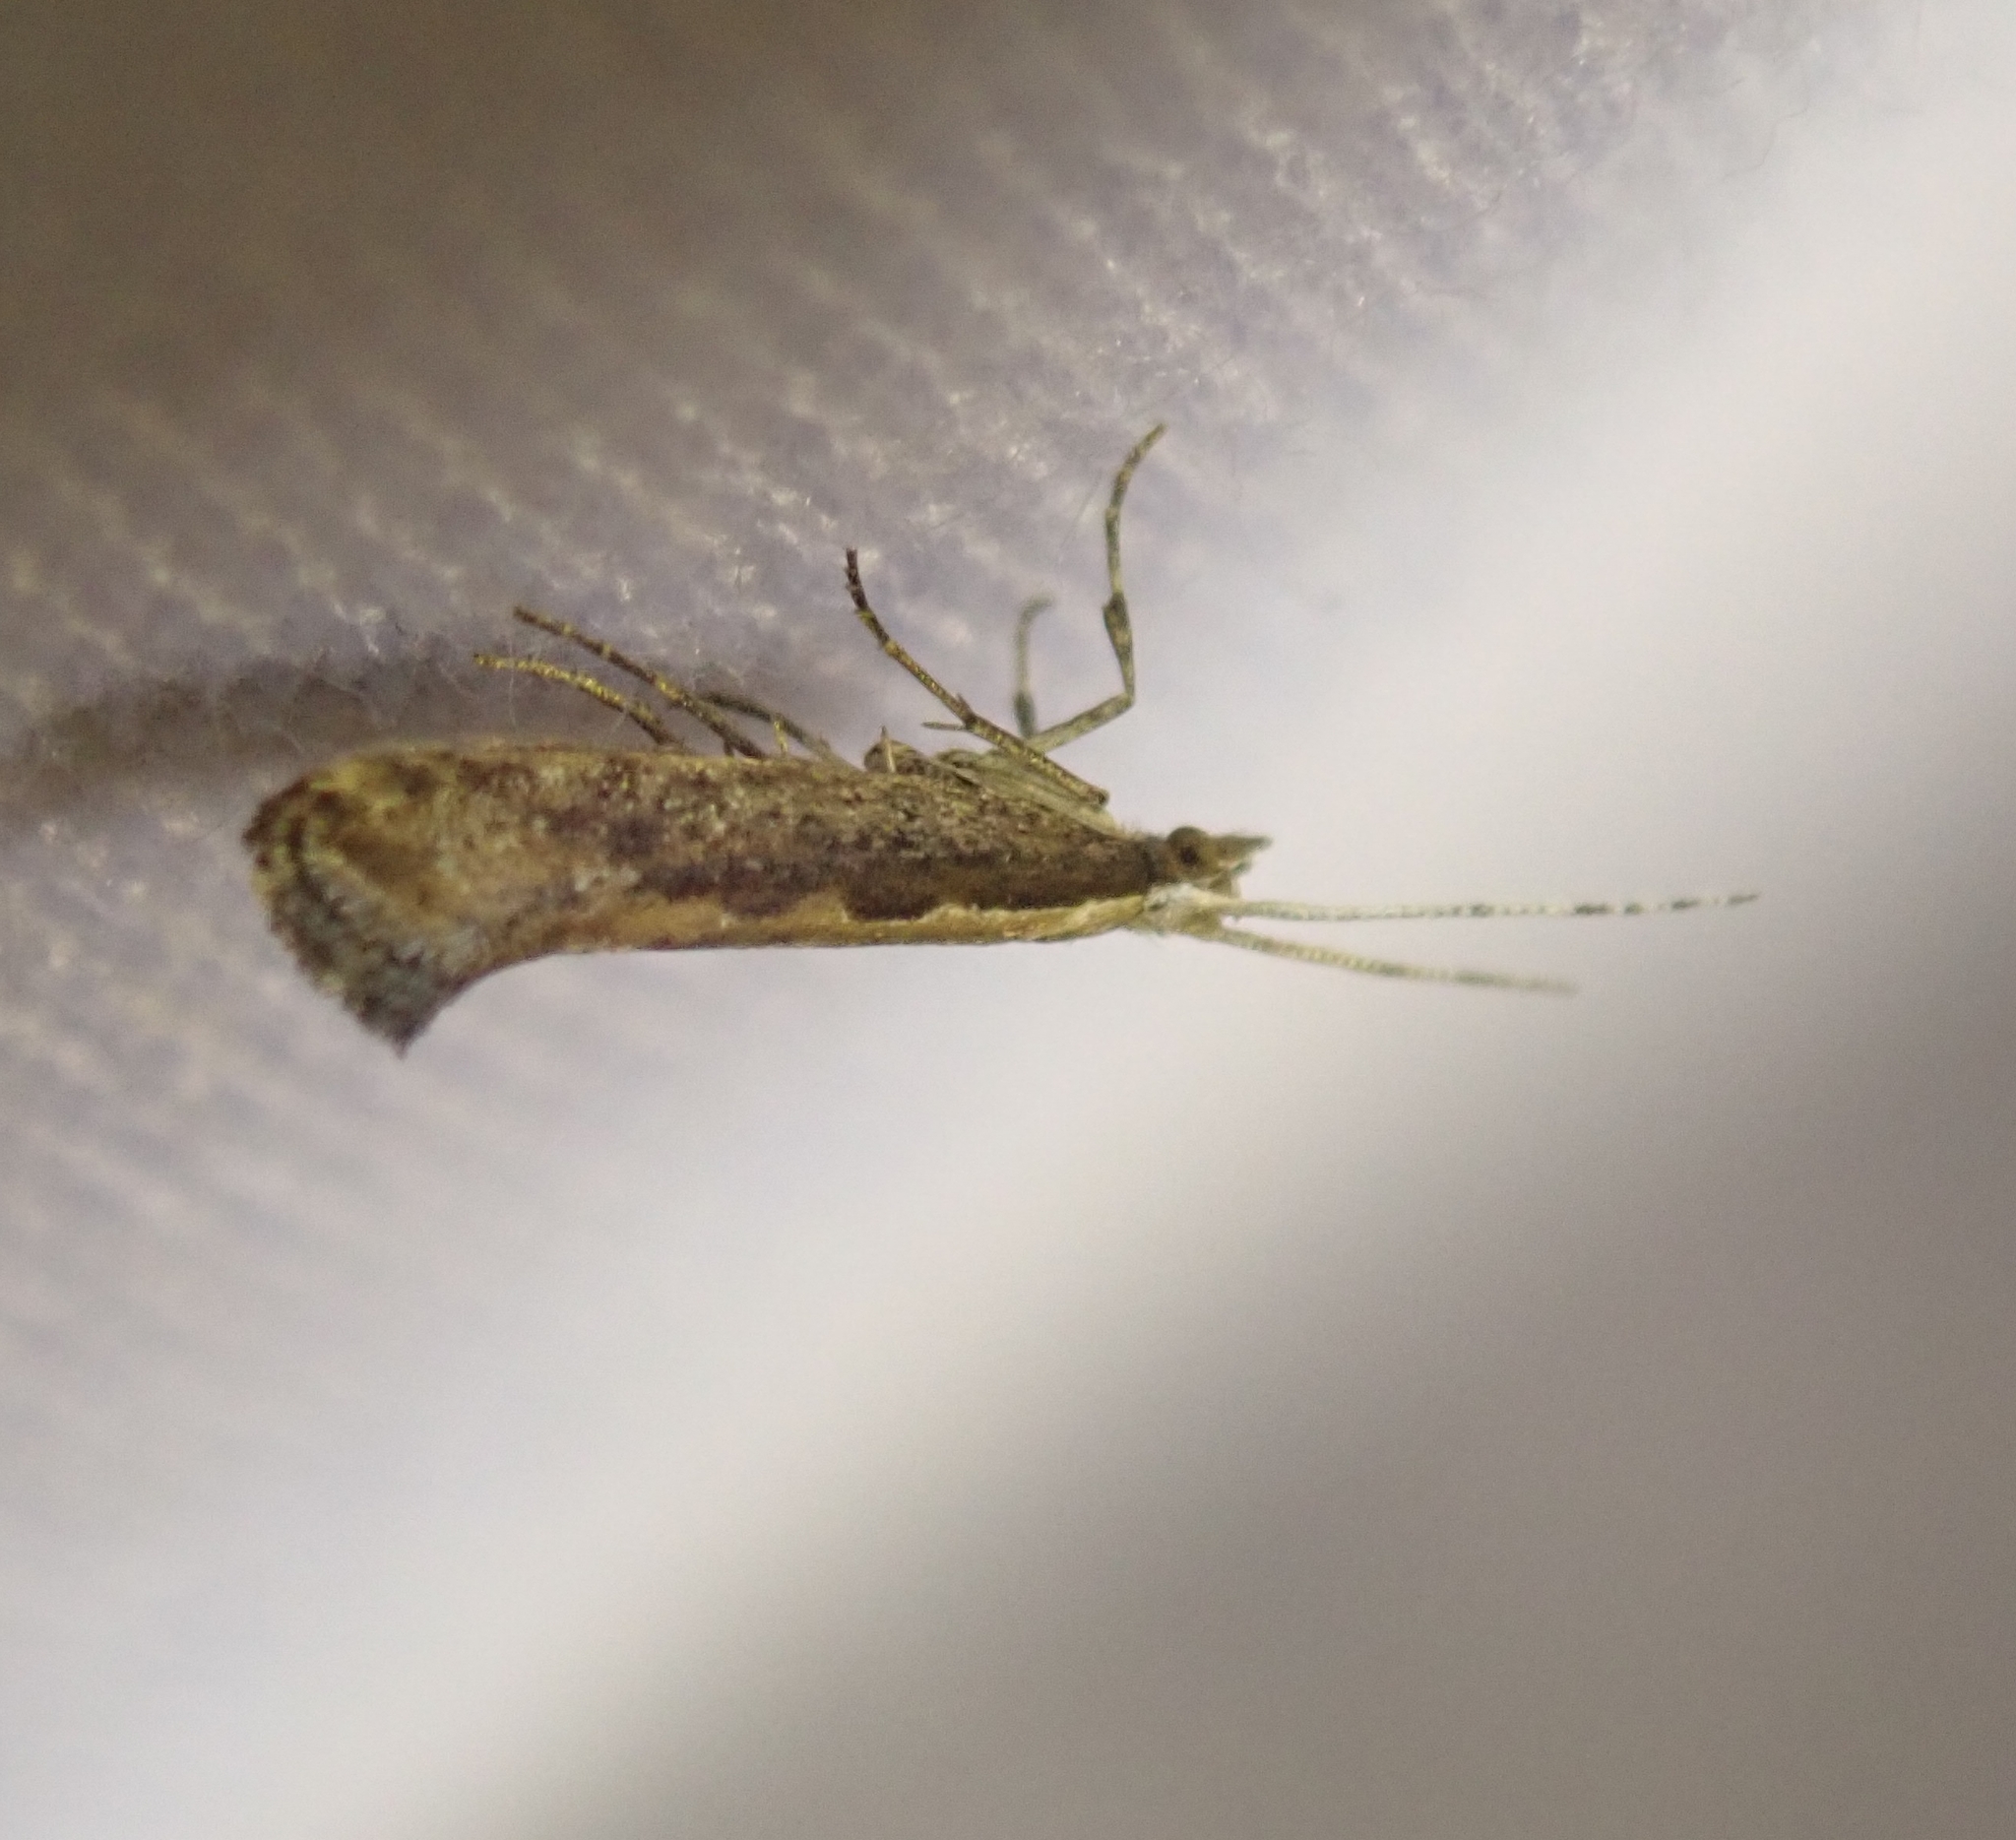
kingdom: Animalia
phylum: Arthropoda
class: Insecta
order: Lepidoptera
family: Plutellidae
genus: Plutella
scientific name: Plutella xylostella
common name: Diamond-back moth
